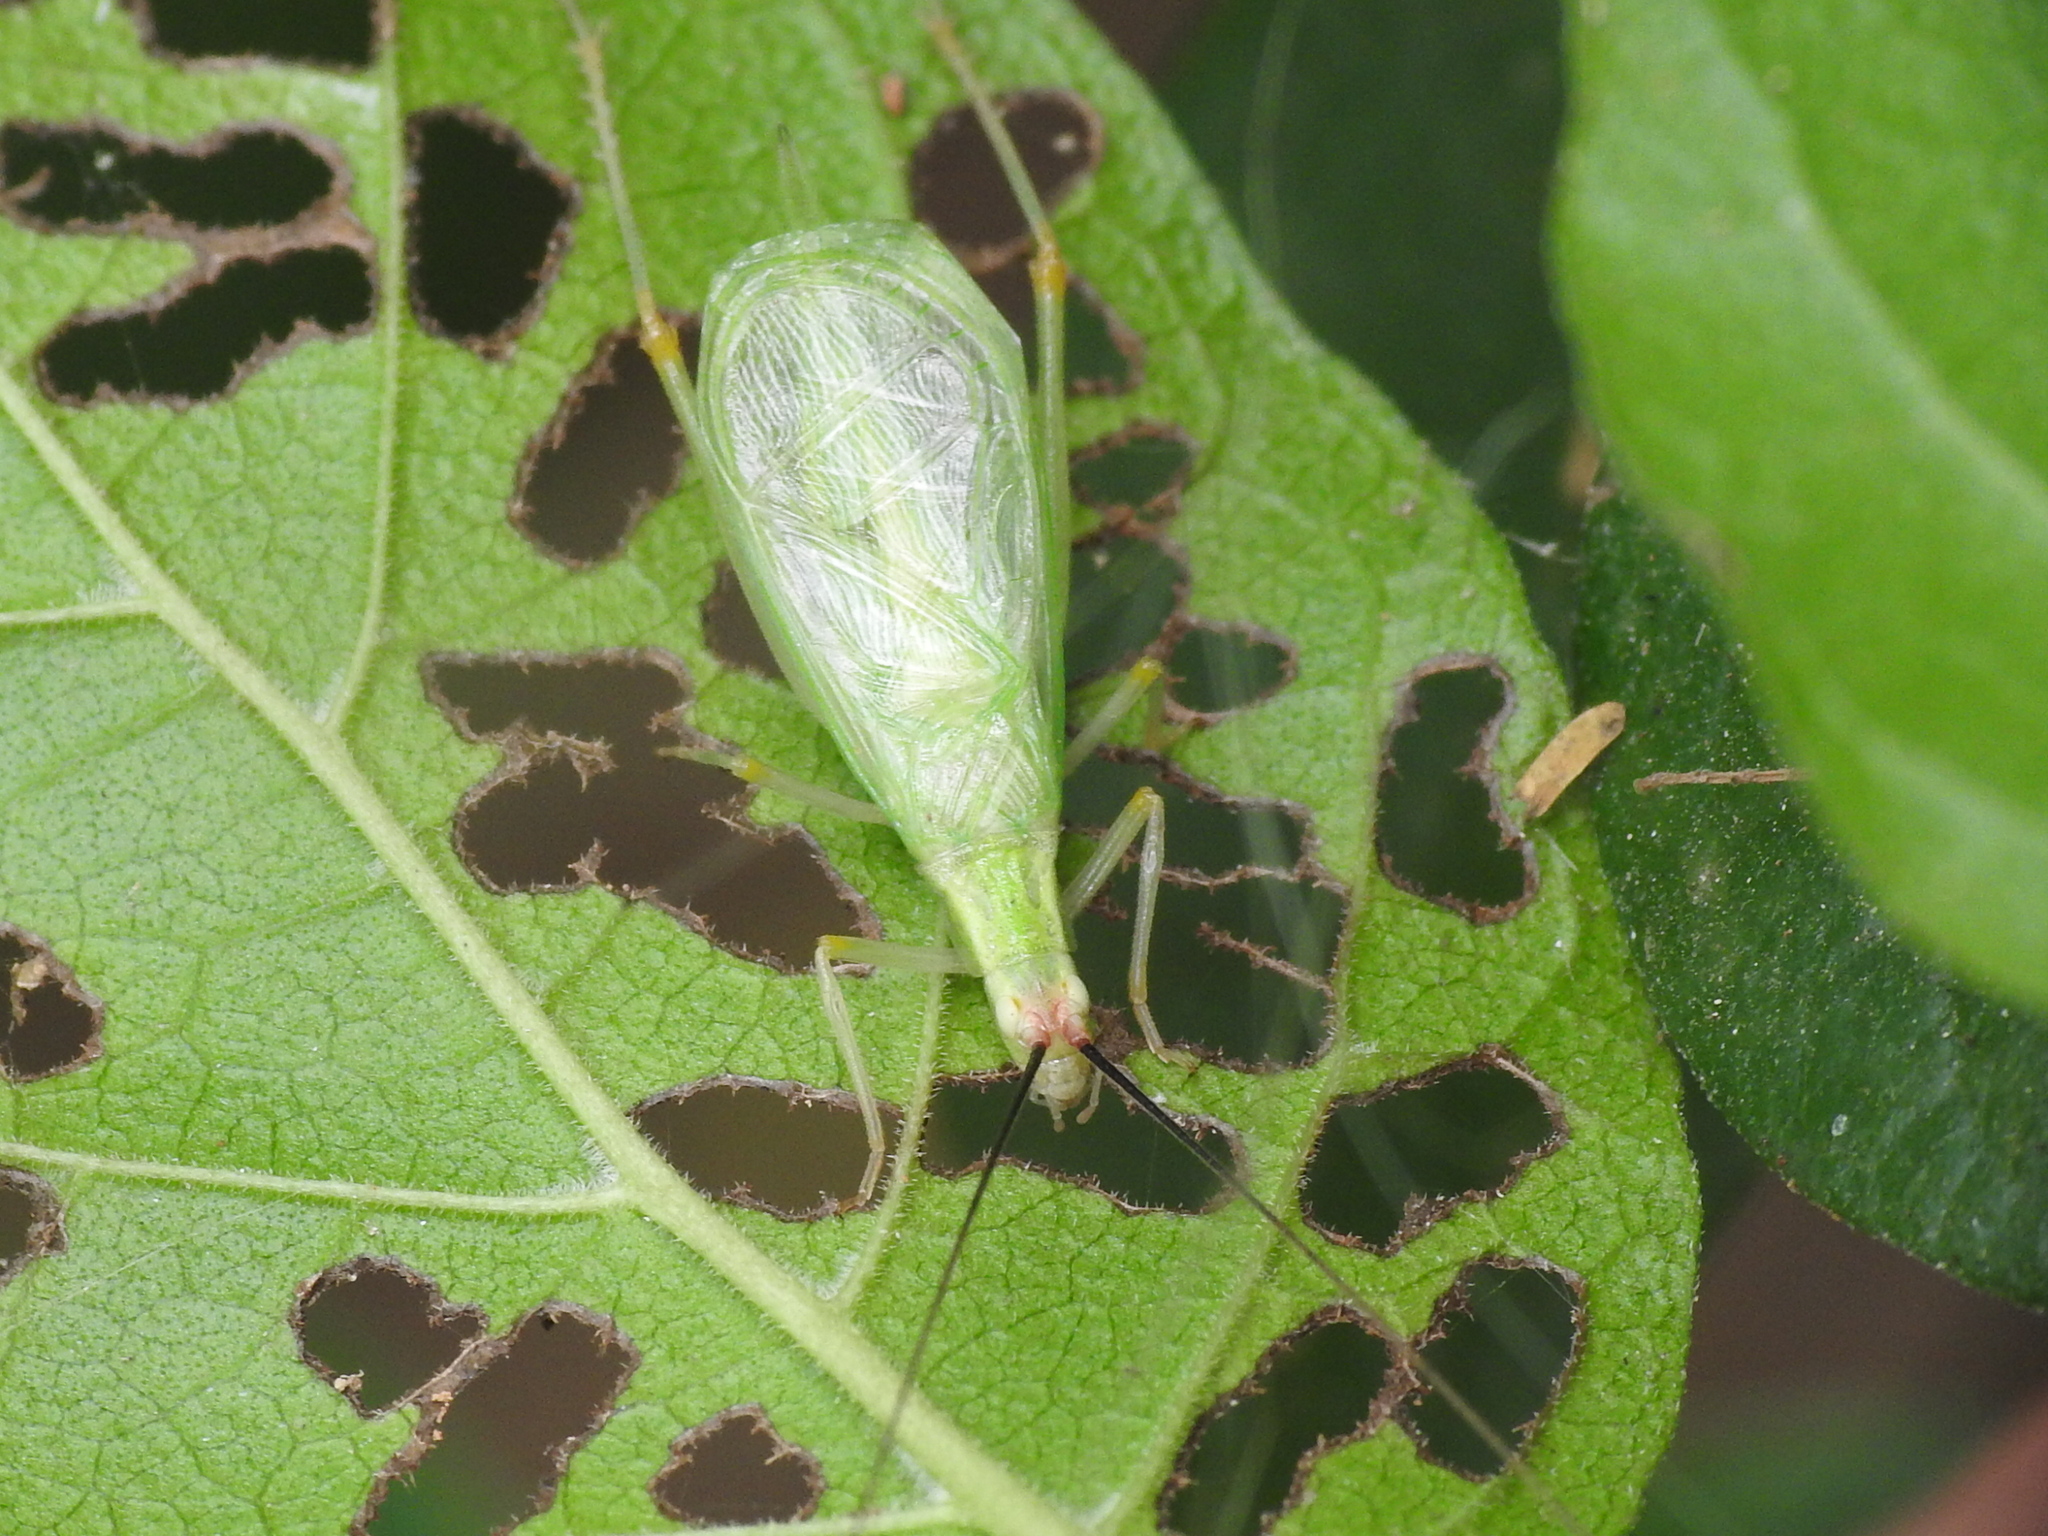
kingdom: Animalia
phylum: Arthropoda
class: Insecta
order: Orthoptera
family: Gryllidae
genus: Oecanthus
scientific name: Oecanthus texensis
